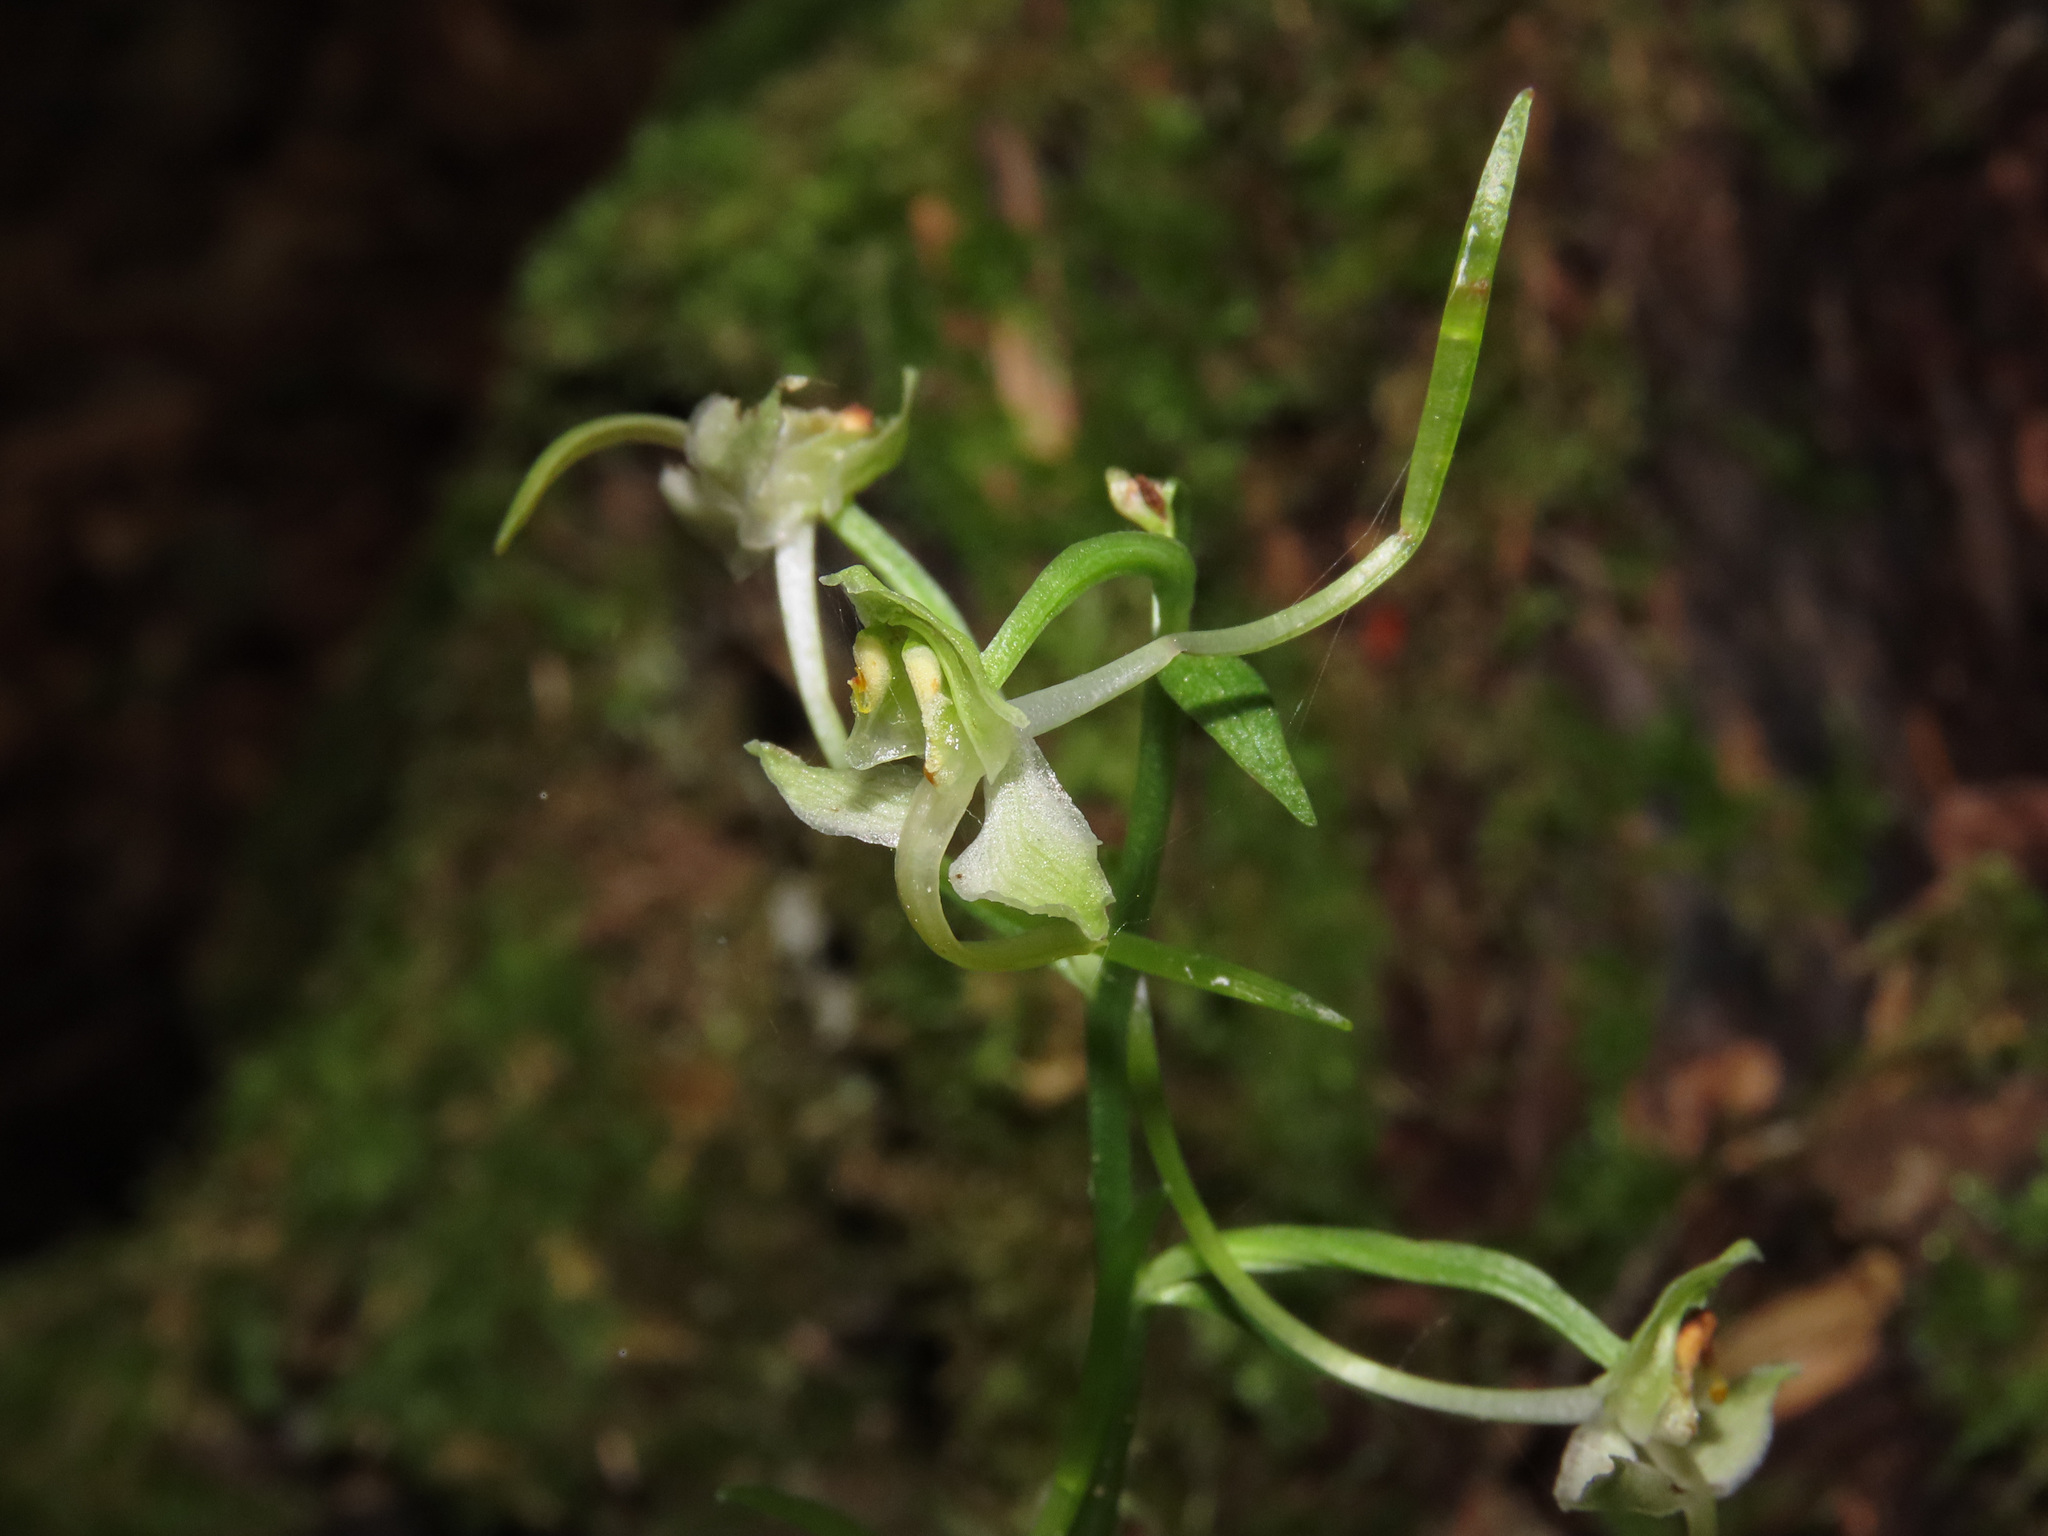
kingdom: Plantae
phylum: Tracheophyta
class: Liliopsida
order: Asparagales
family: Orchidaceae
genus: Platanthera
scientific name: Platanthera chlorantha
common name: Greater butterfly-orchid
